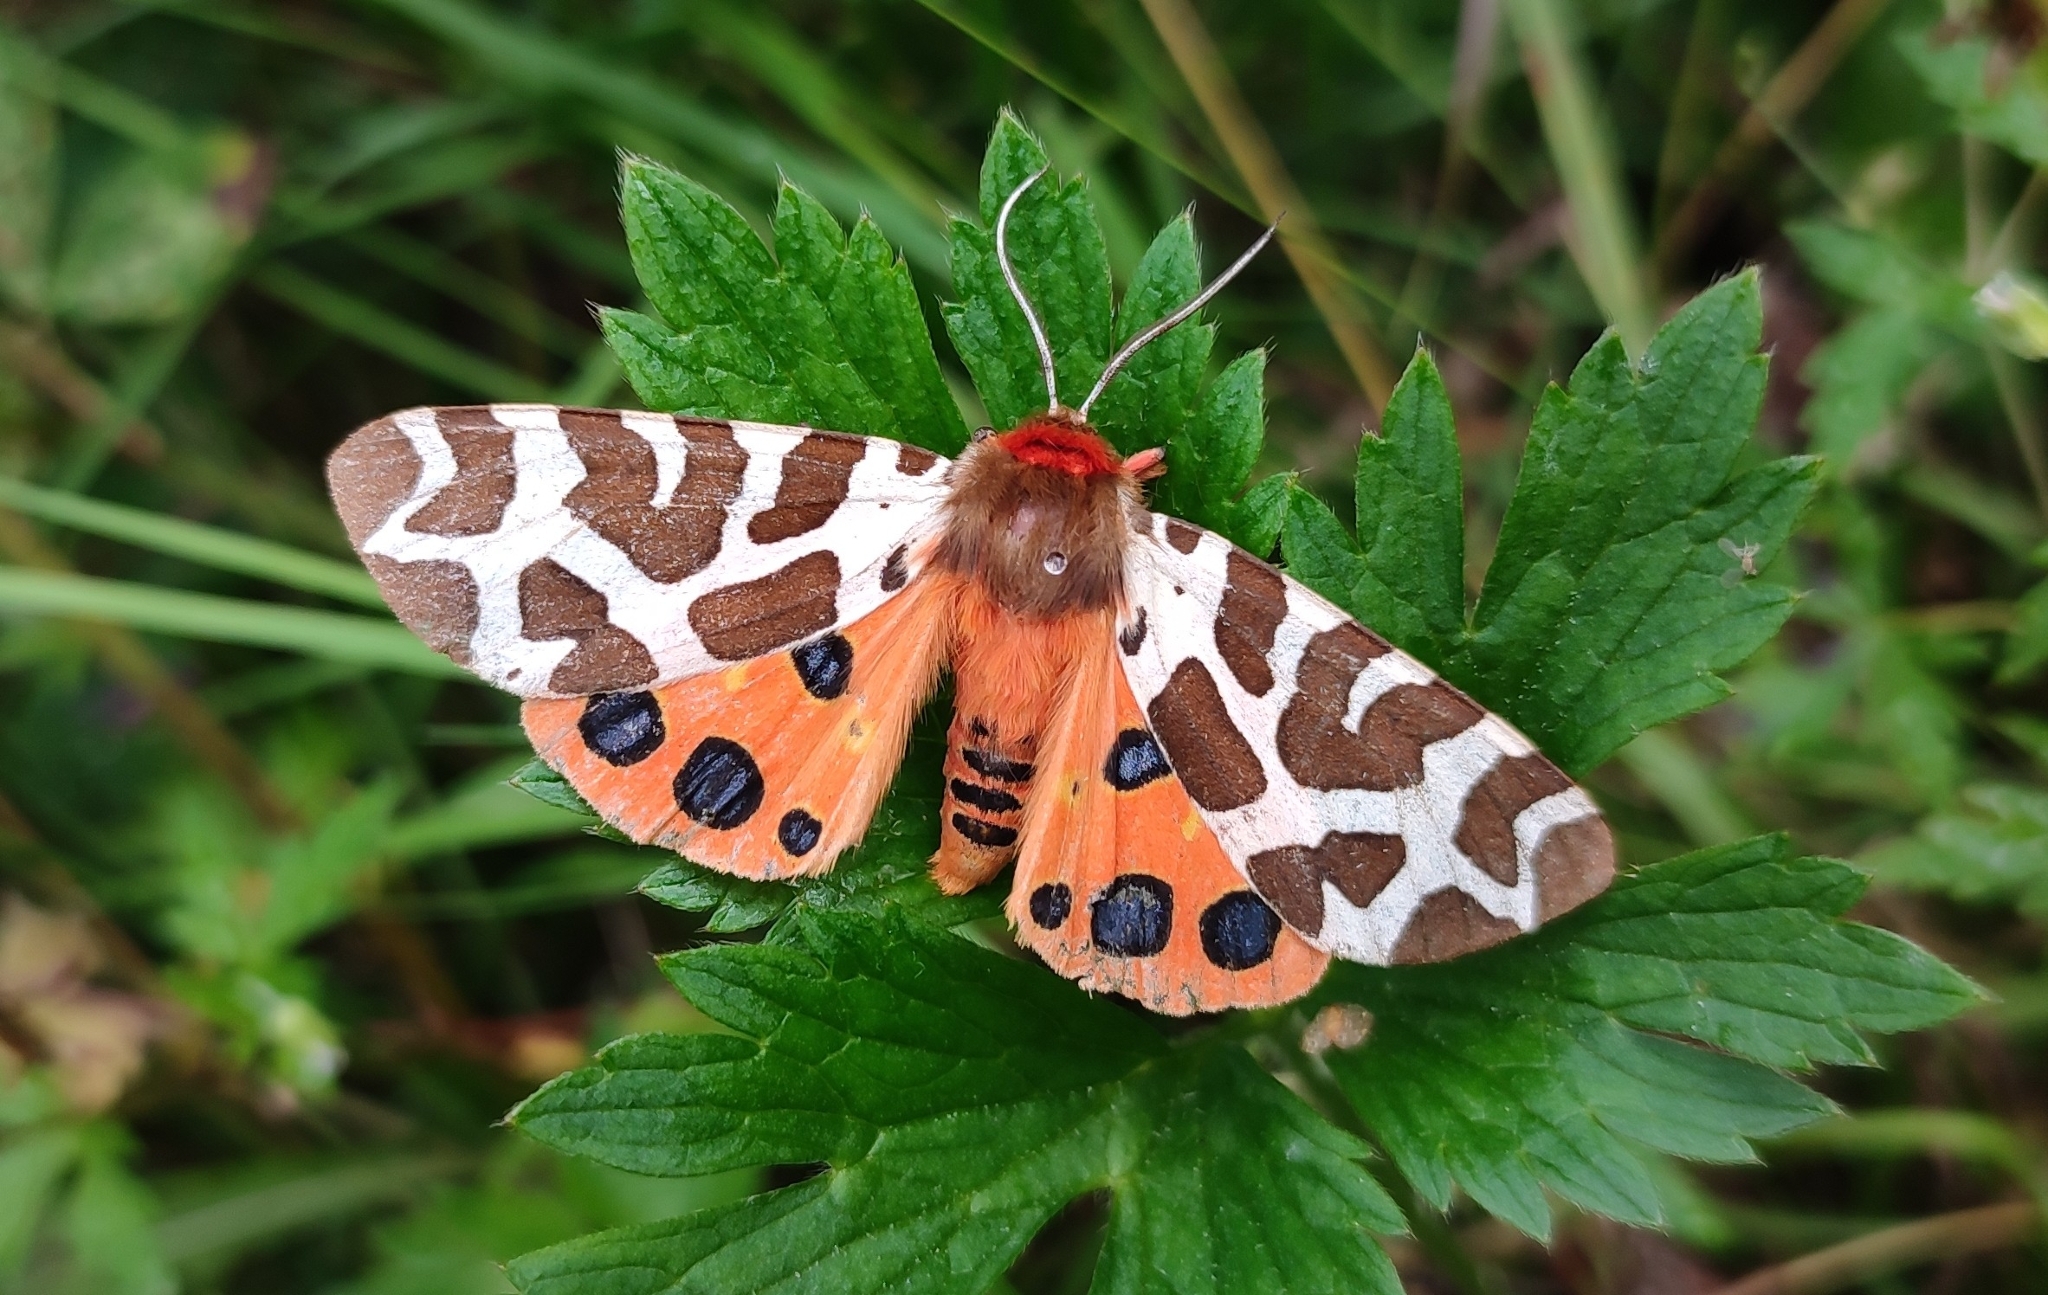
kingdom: Animalia
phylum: Arthropoda
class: Insecta
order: Lepidoptera
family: Erebidae
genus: Arctia
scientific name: Arctia caja
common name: Garden tiger
